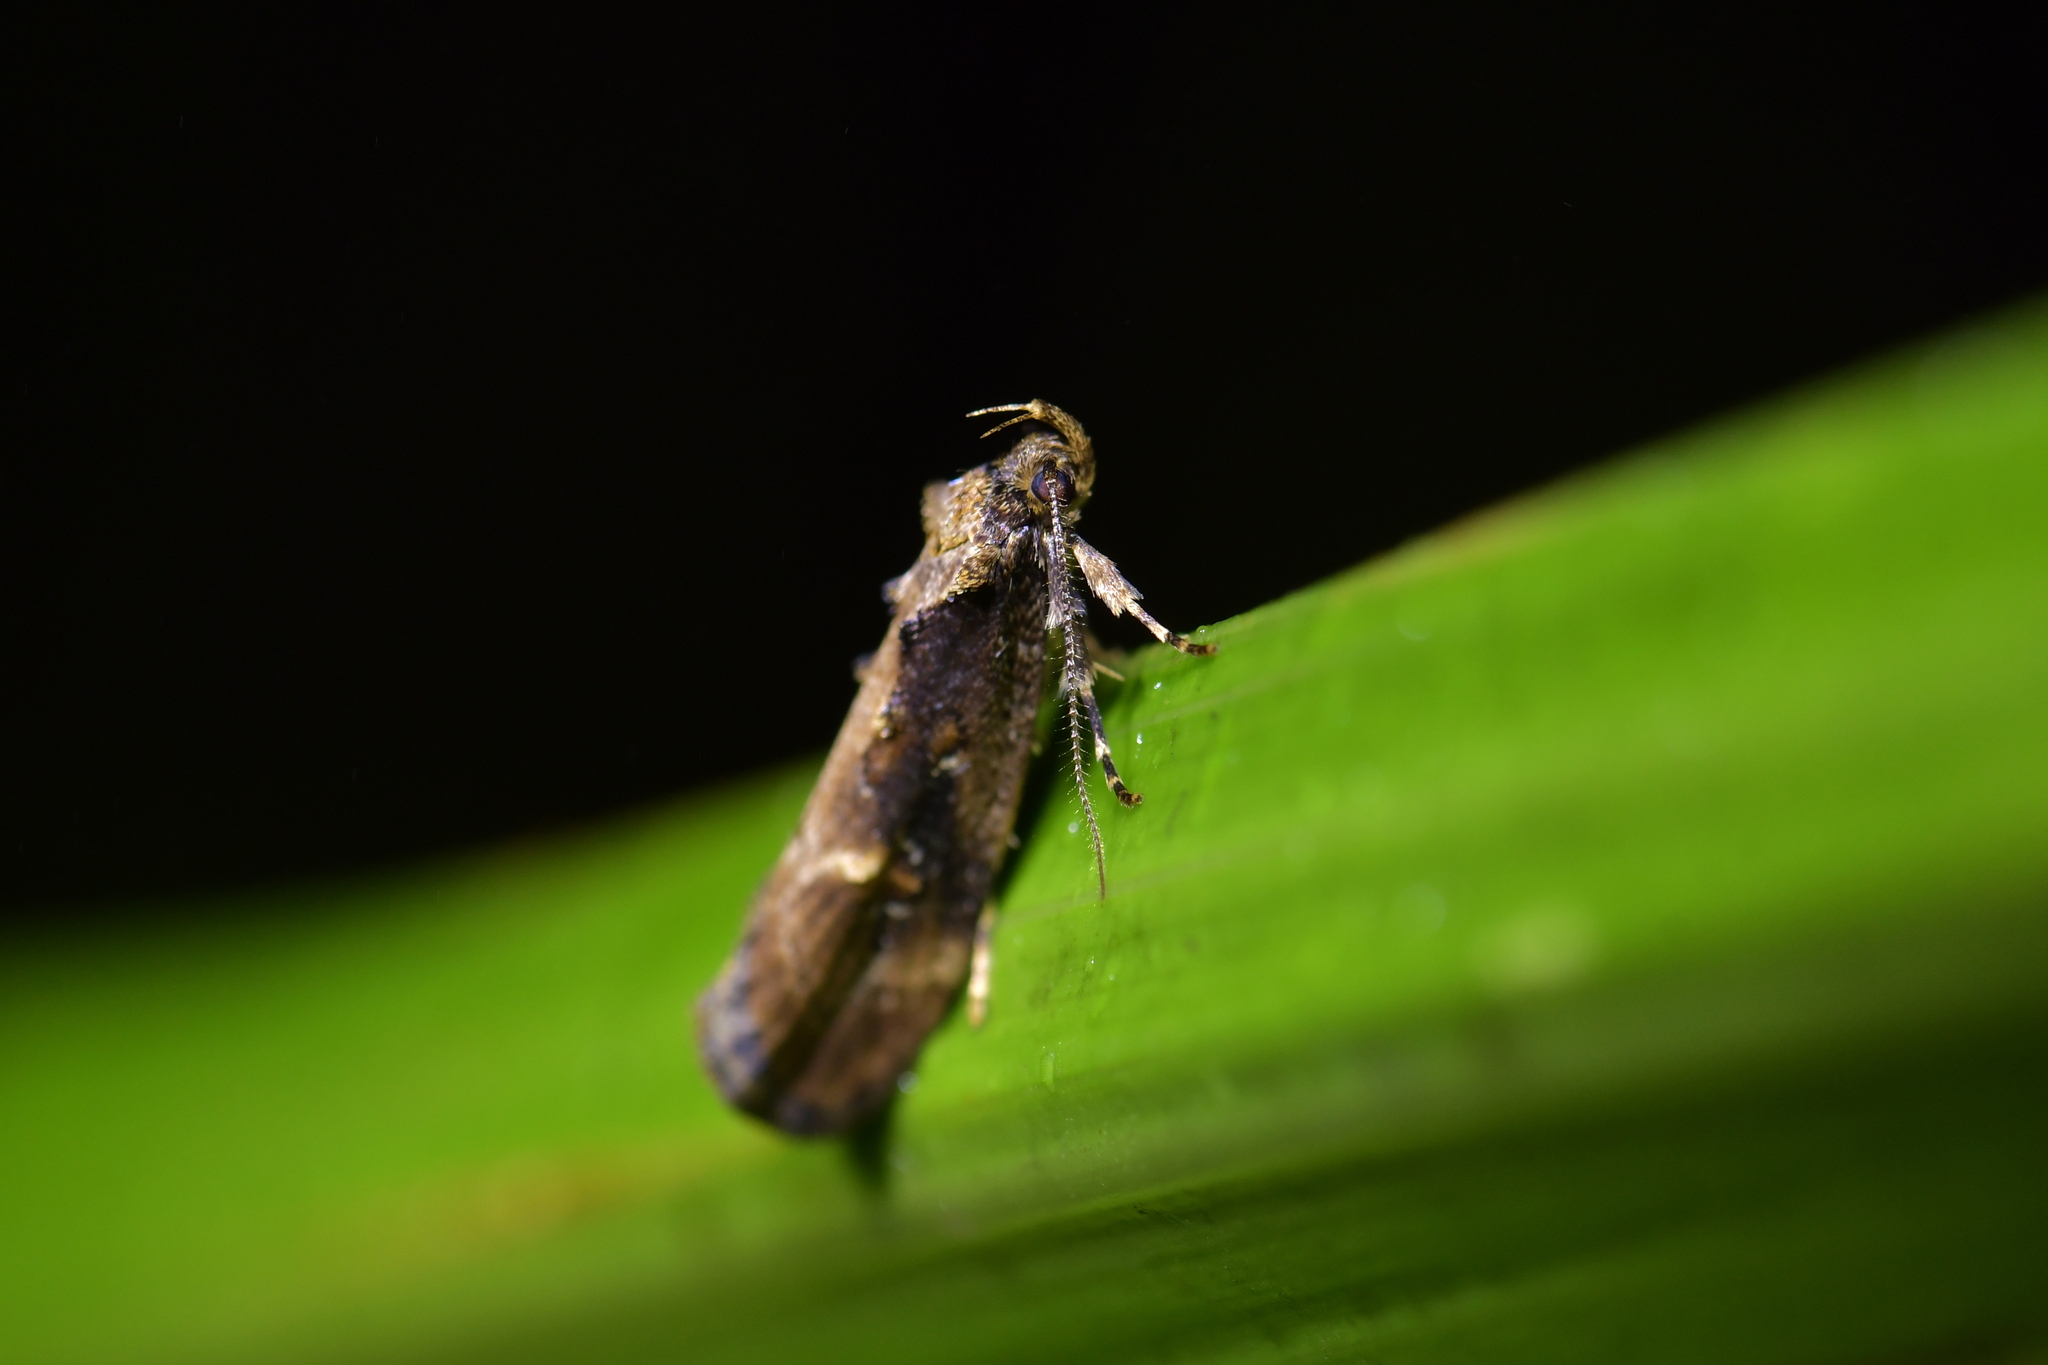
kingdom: Animalia
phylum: Arthropoda
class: Insecta
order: Lepidoptera
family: Oecophoridae
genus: Atomotricha
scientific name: Atomotricha isogama
